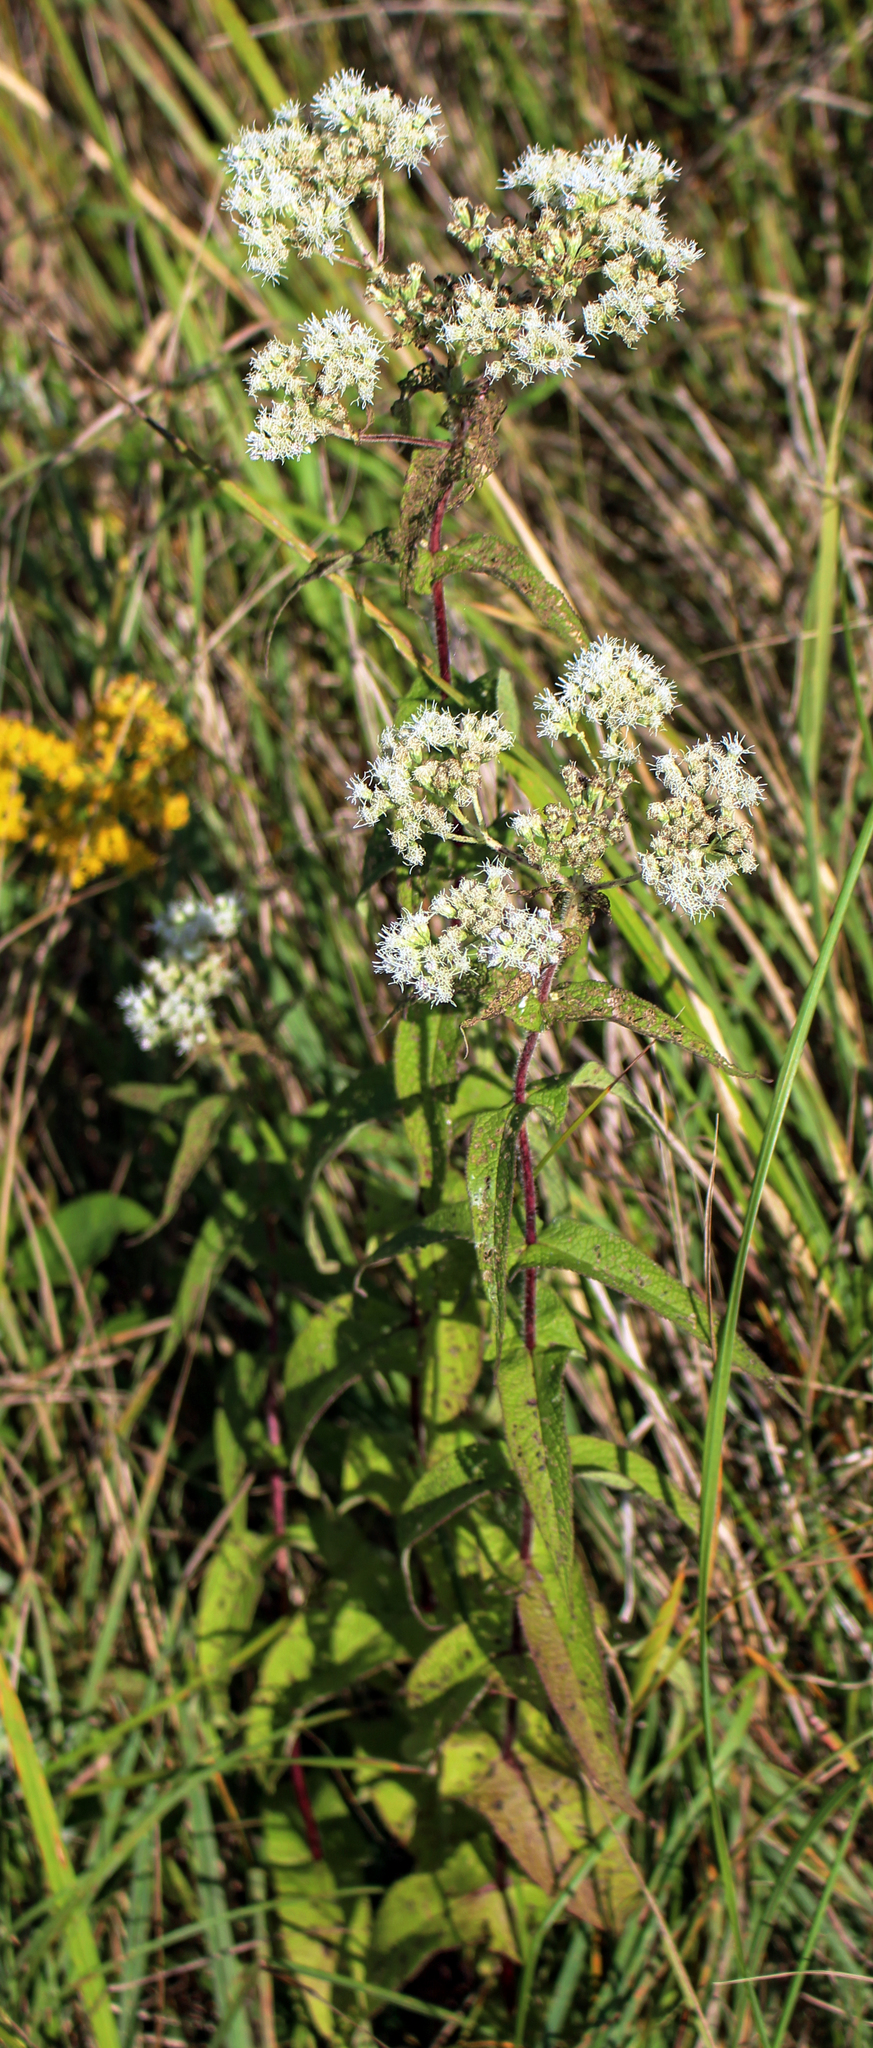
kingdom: Plantae
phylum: Tracheophyta
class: Magnoliopsida
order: Asterales
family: Asteraceae
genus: Eupatorium
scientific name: Eupatorium perfoliatum
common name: Boneset
